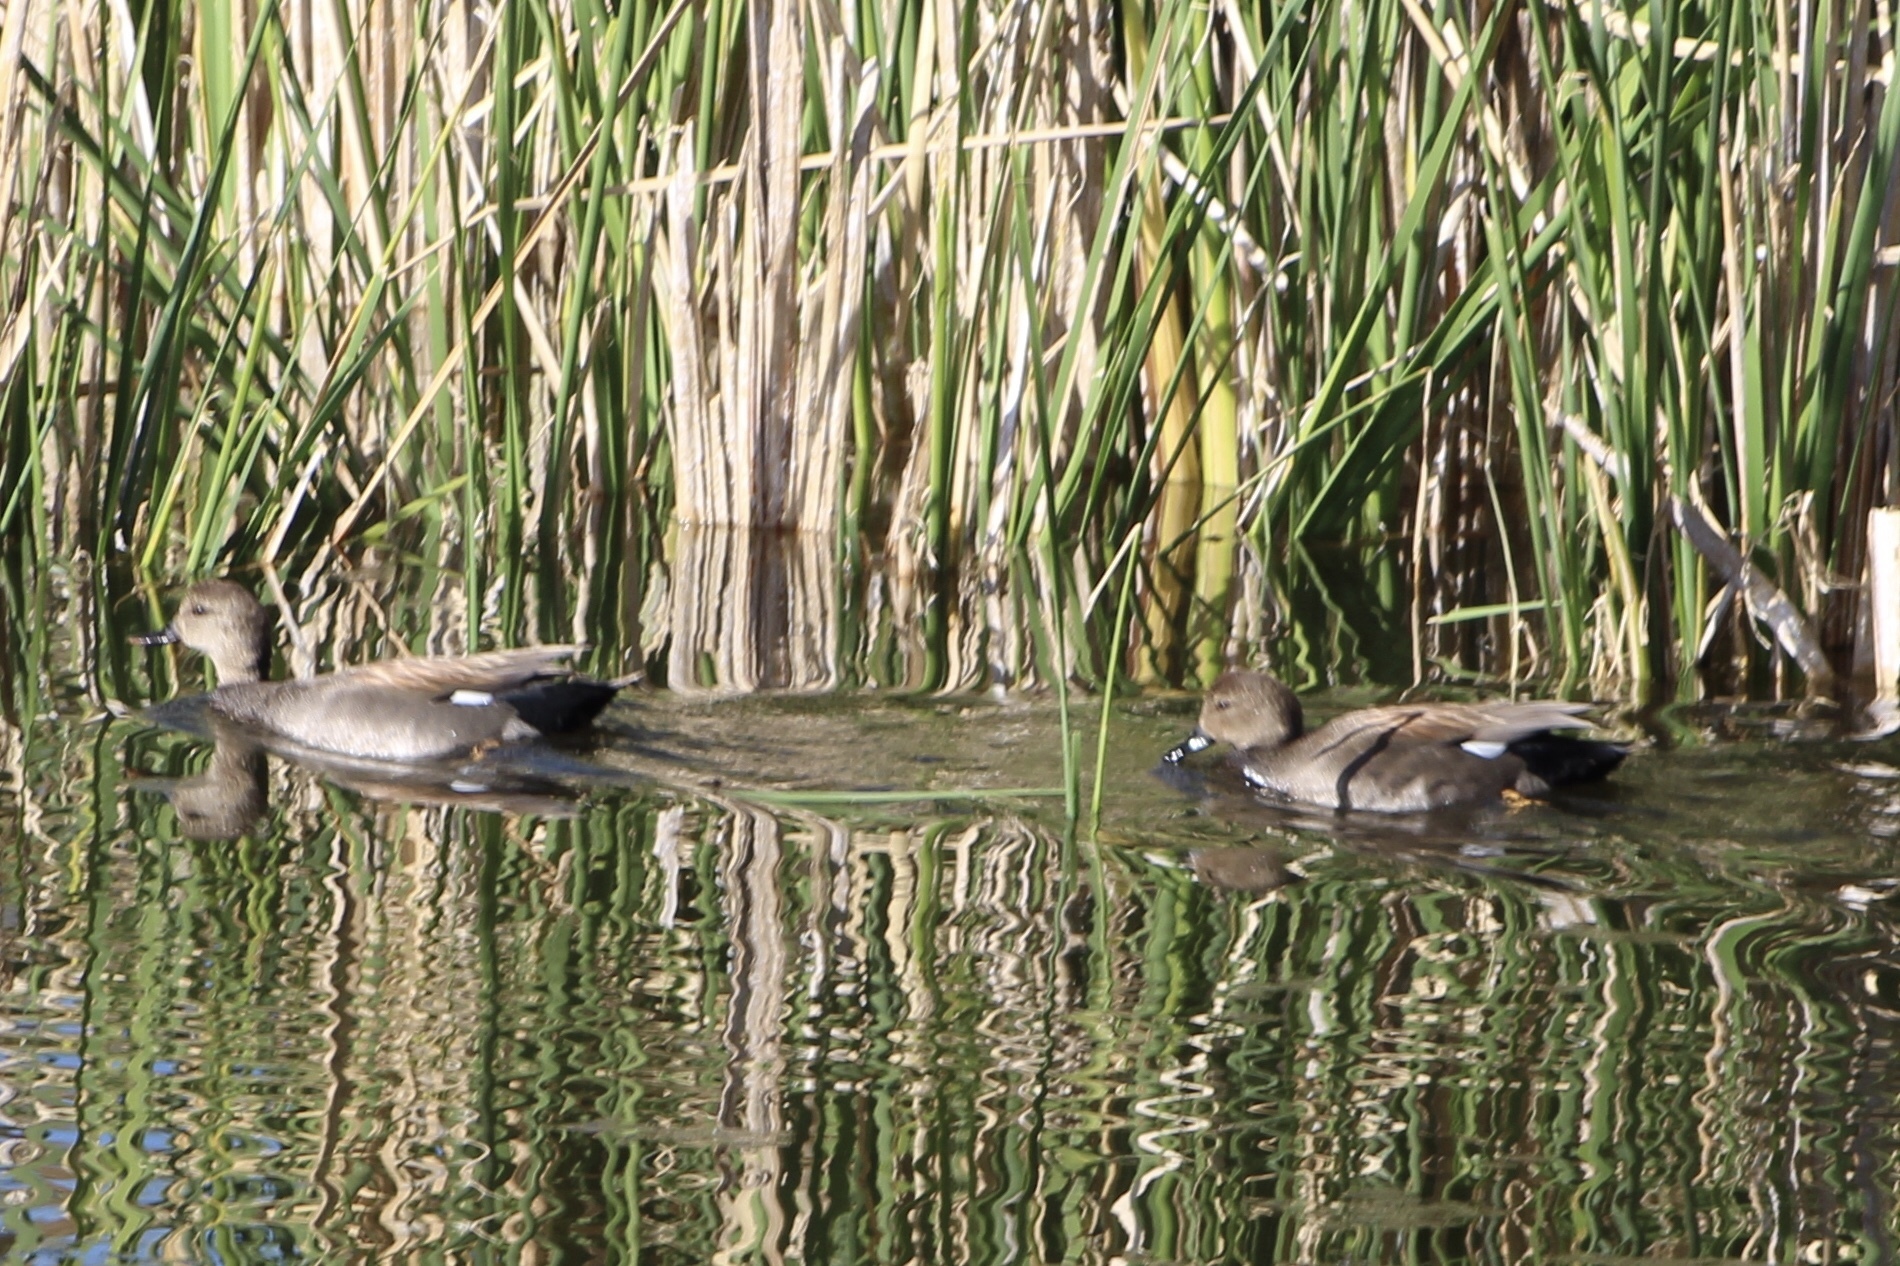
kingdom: Animalia
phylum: Chordata
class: Aves
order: Anseriformes
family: Anatidae
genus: Mareca
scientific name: Mareca strepera
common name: Gadwall
